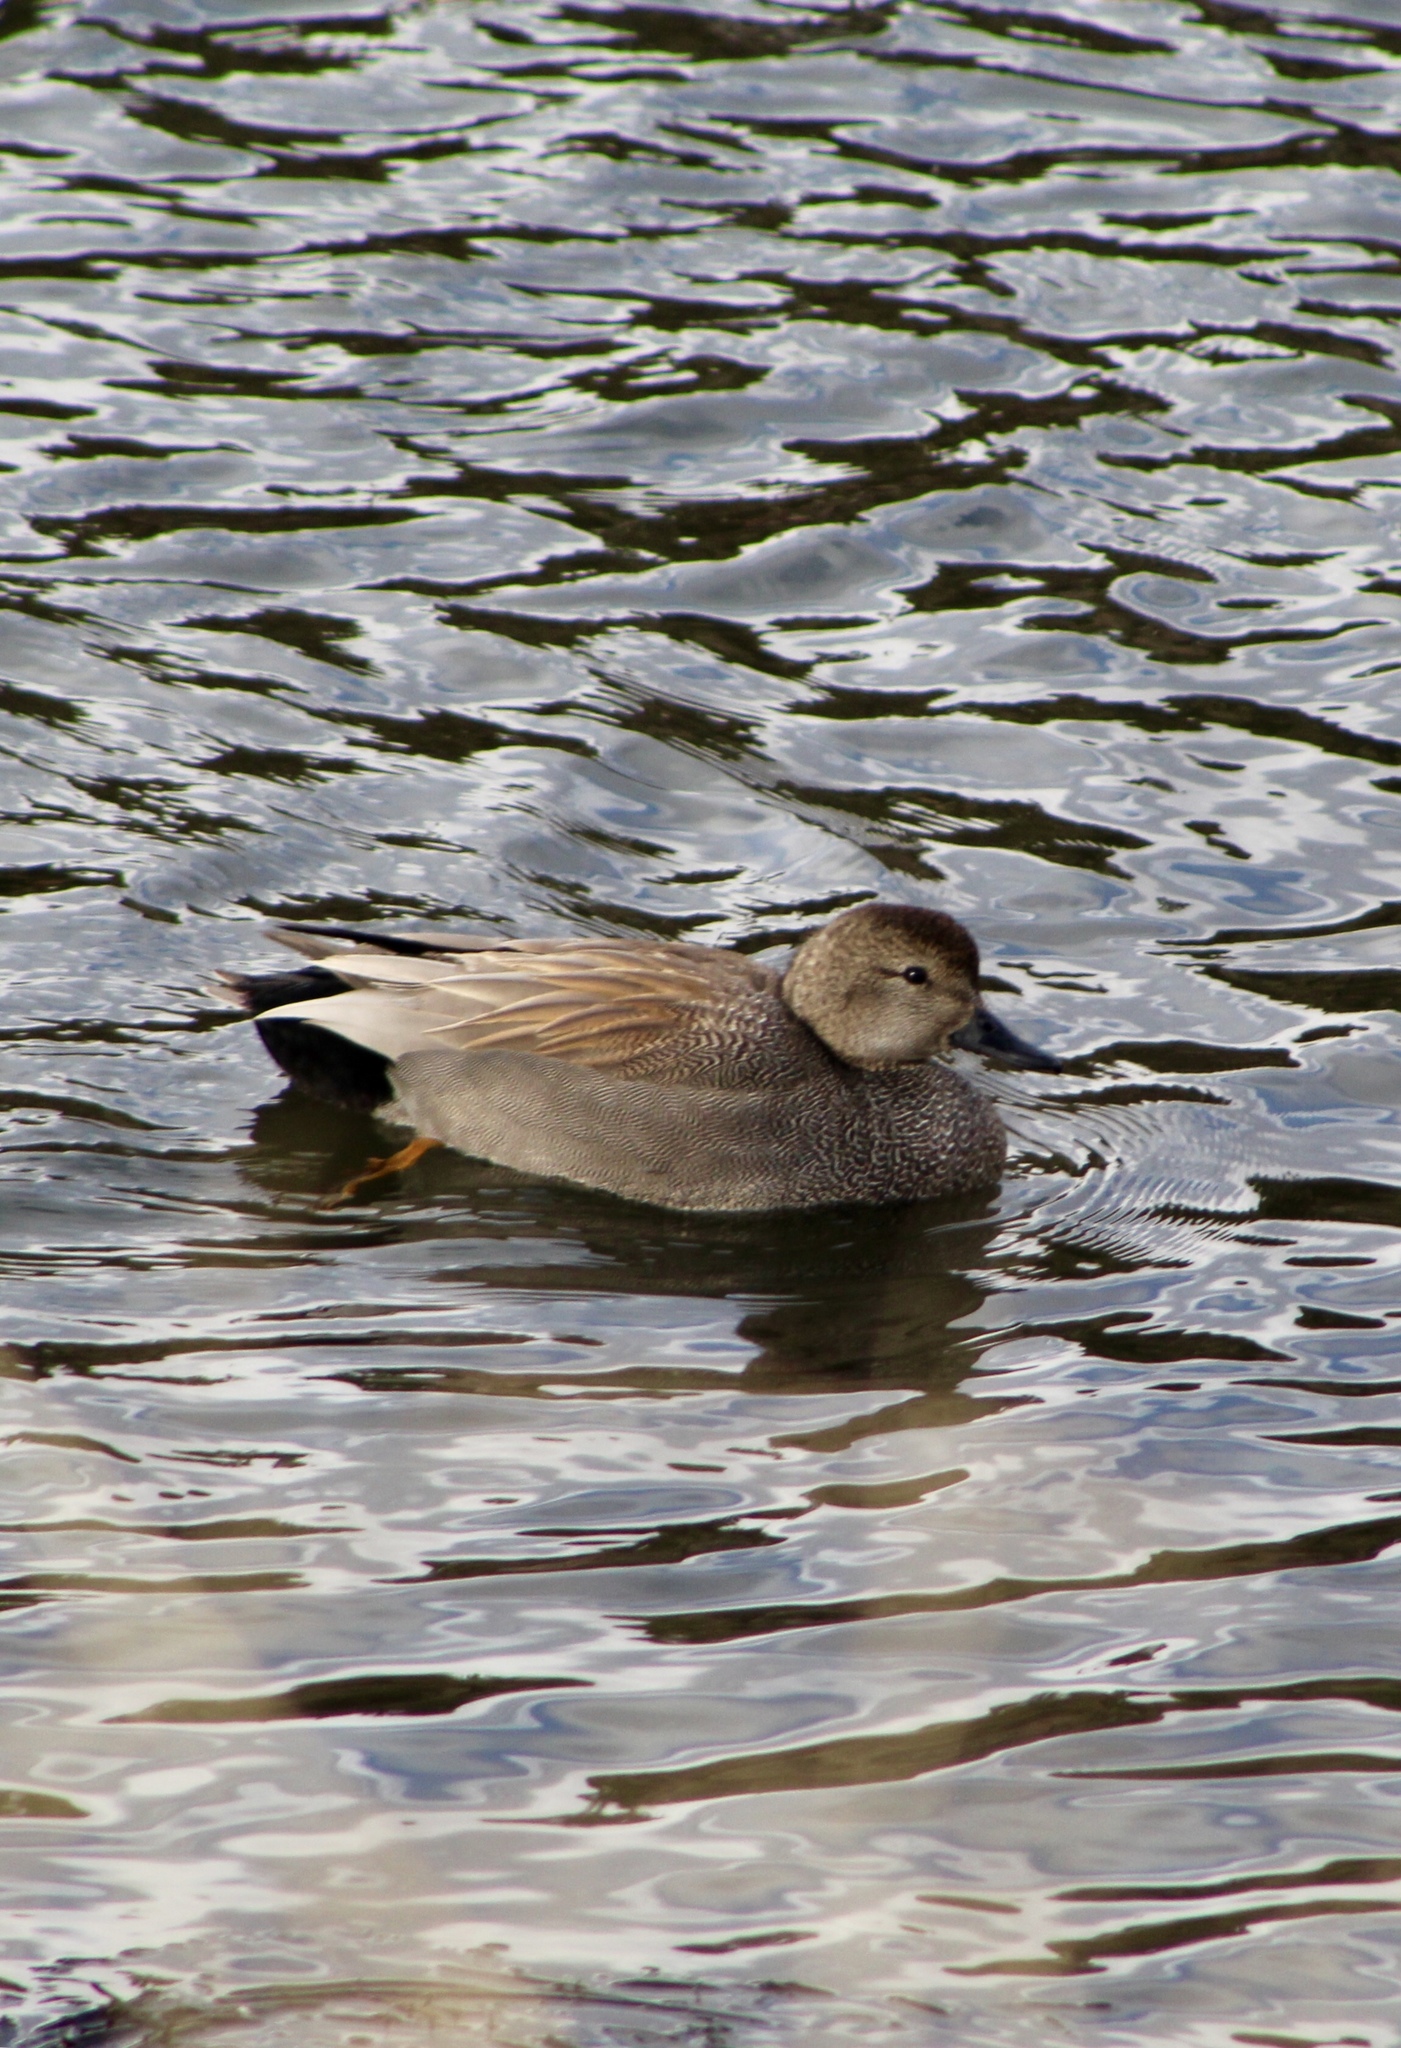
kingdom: Animalia
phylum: Chordata
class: Aves
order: Anseriformes
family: Anatidae
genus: Mareca
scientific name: Mareca strepera
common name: Gadwall
